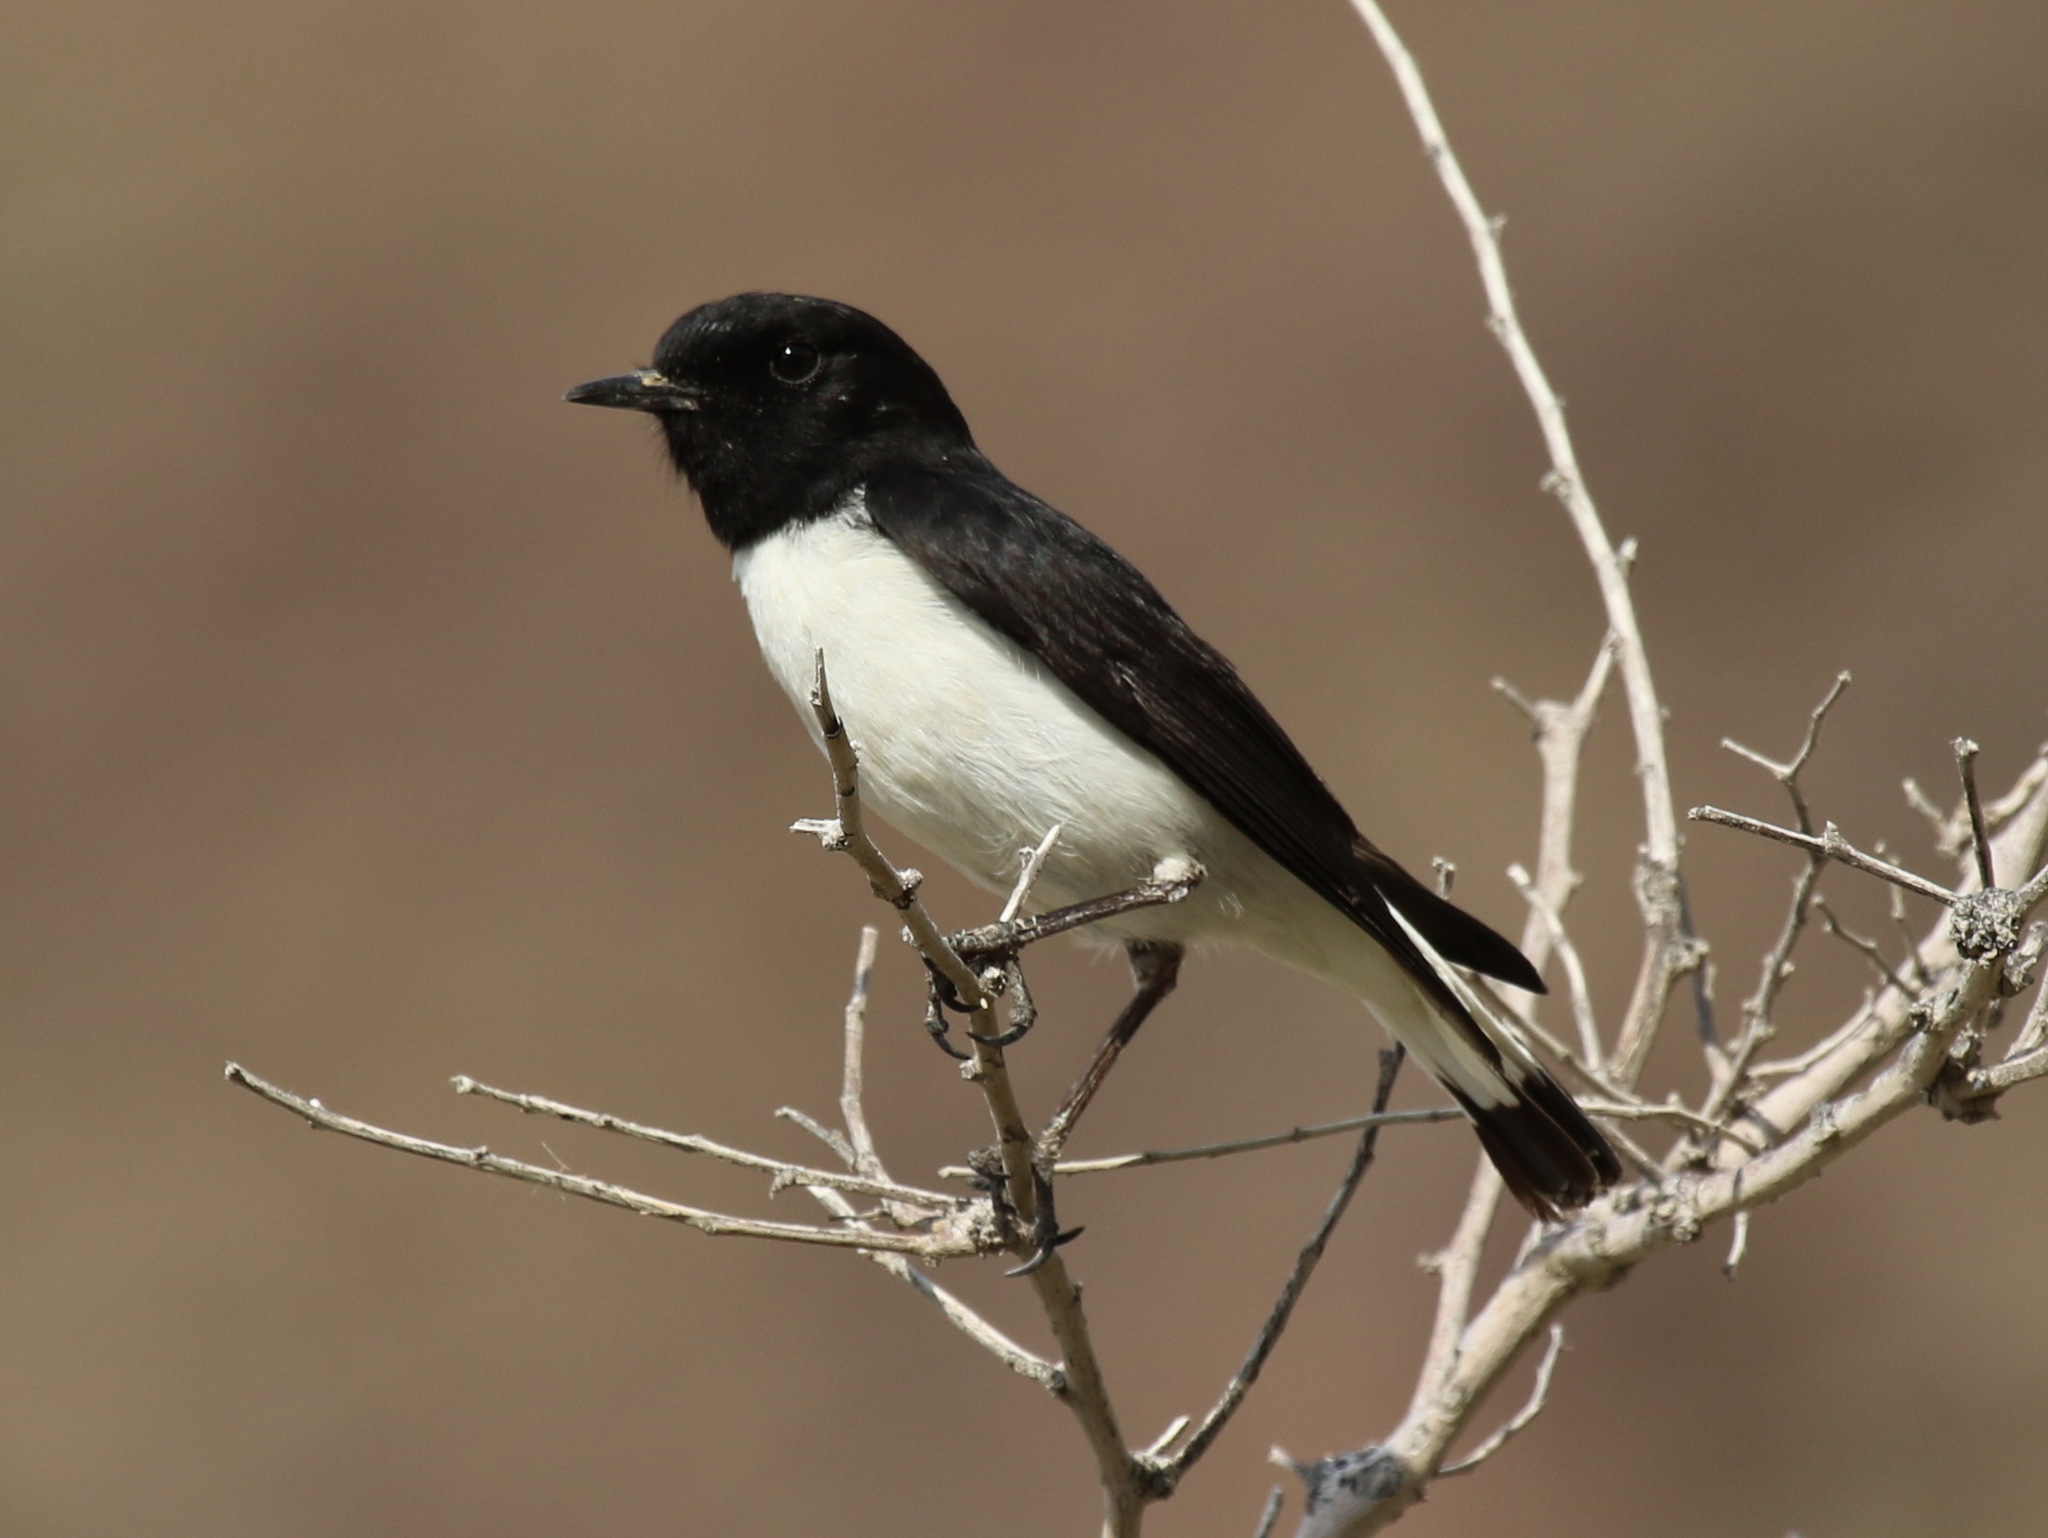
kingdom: Animalia
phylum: Chordata
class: Aves
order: Passeriformes
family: Muscicapidae
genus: Oenanthe
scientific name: Oenanthe albonigra
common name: Hume's wheatear
